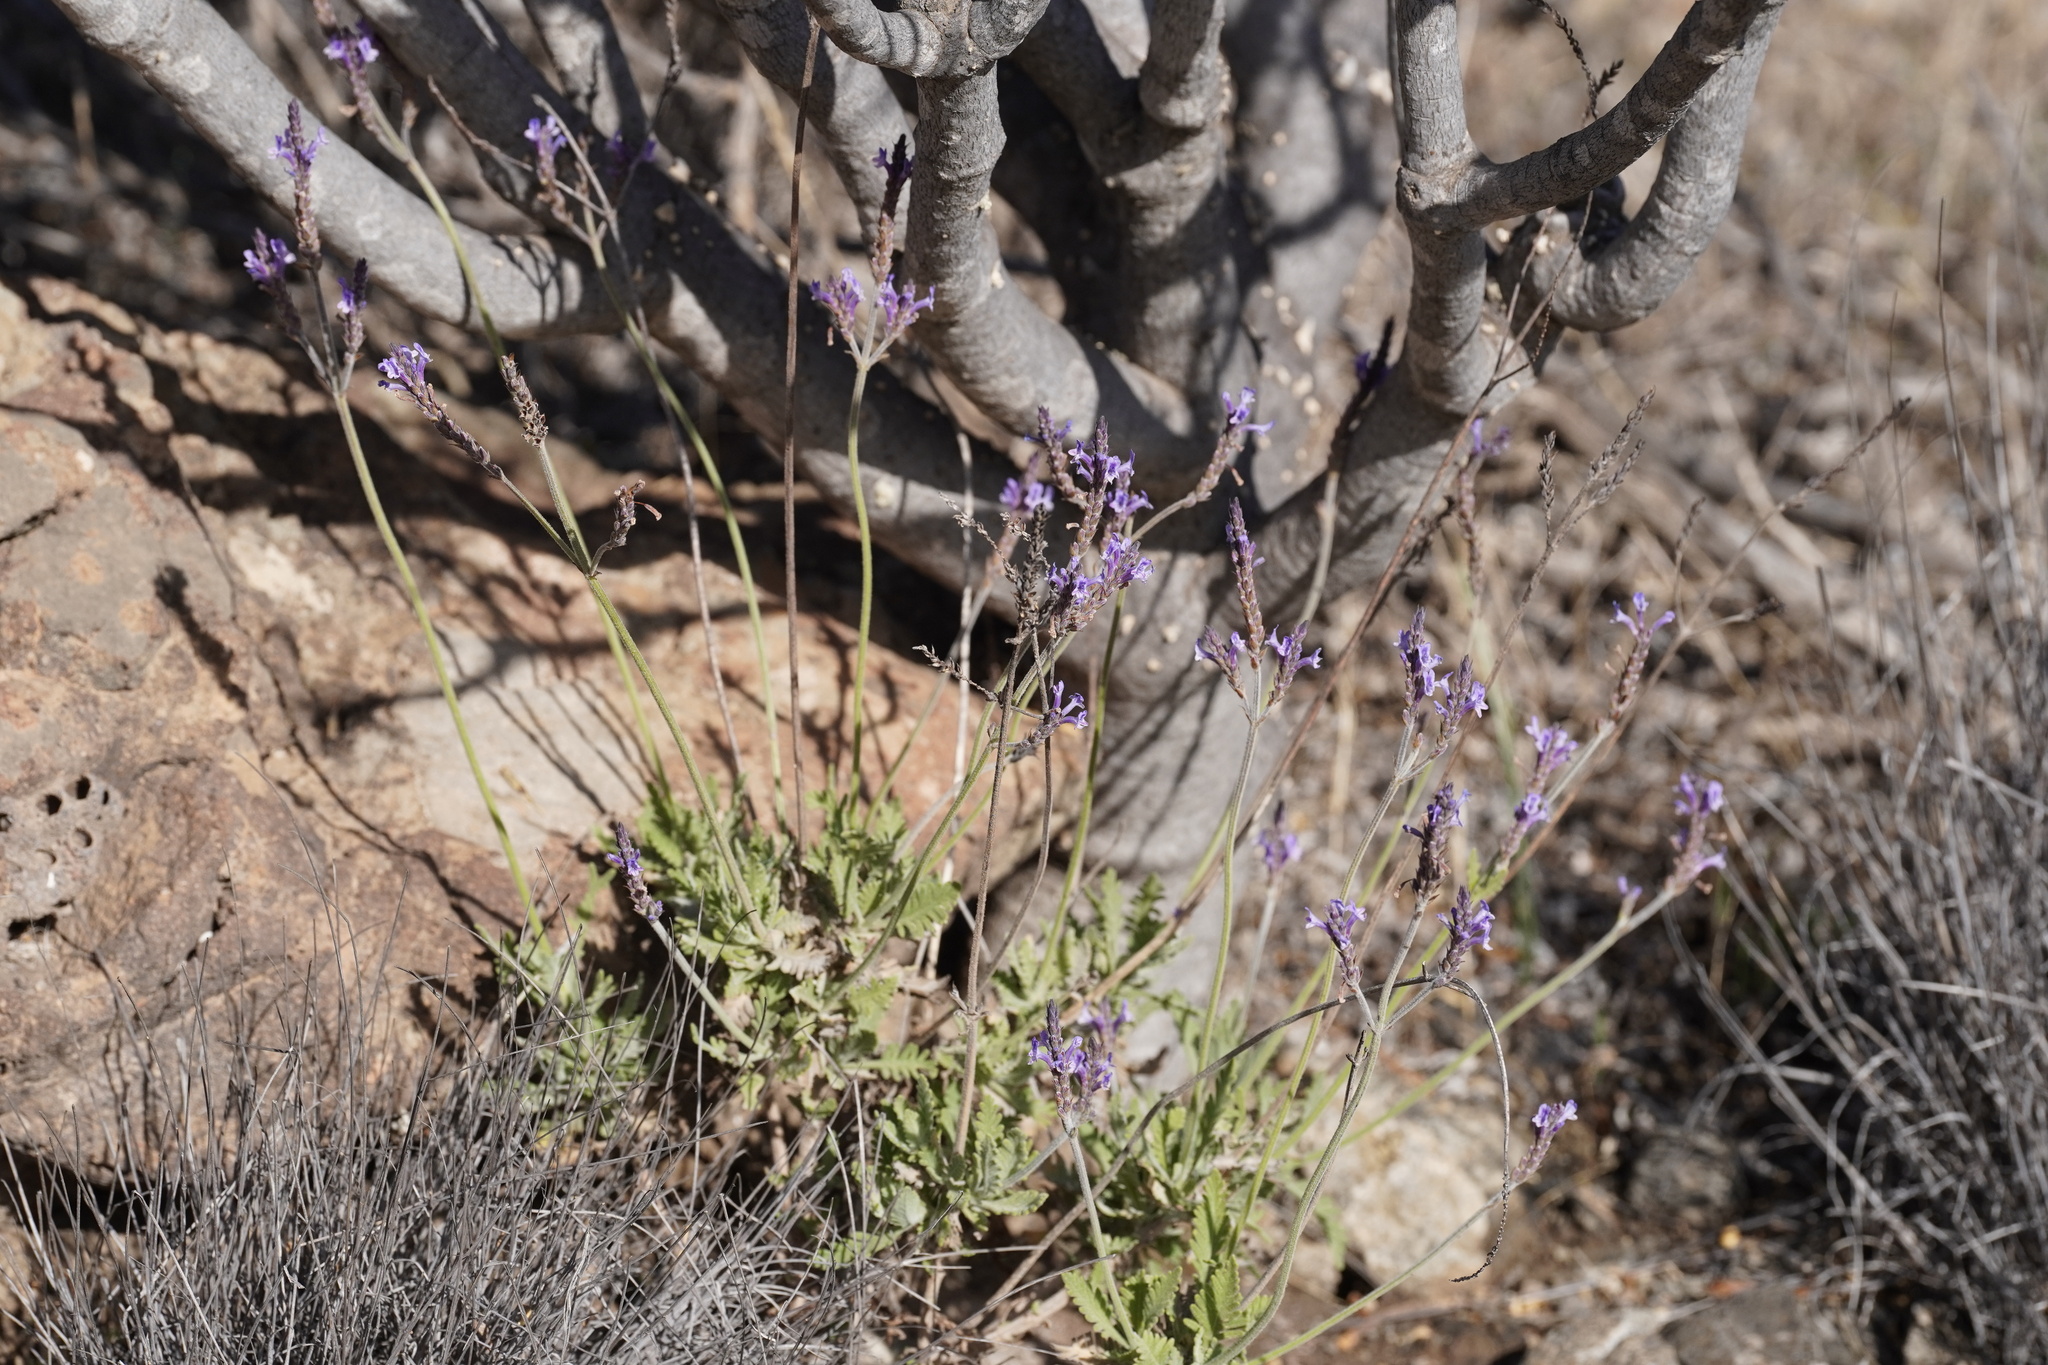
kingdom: Plantae
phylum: Tracheophyta
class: Magnoliopsida
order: Lamiales
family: Lamiaceae
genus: Lavandula
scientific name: Lavandula minutolii
